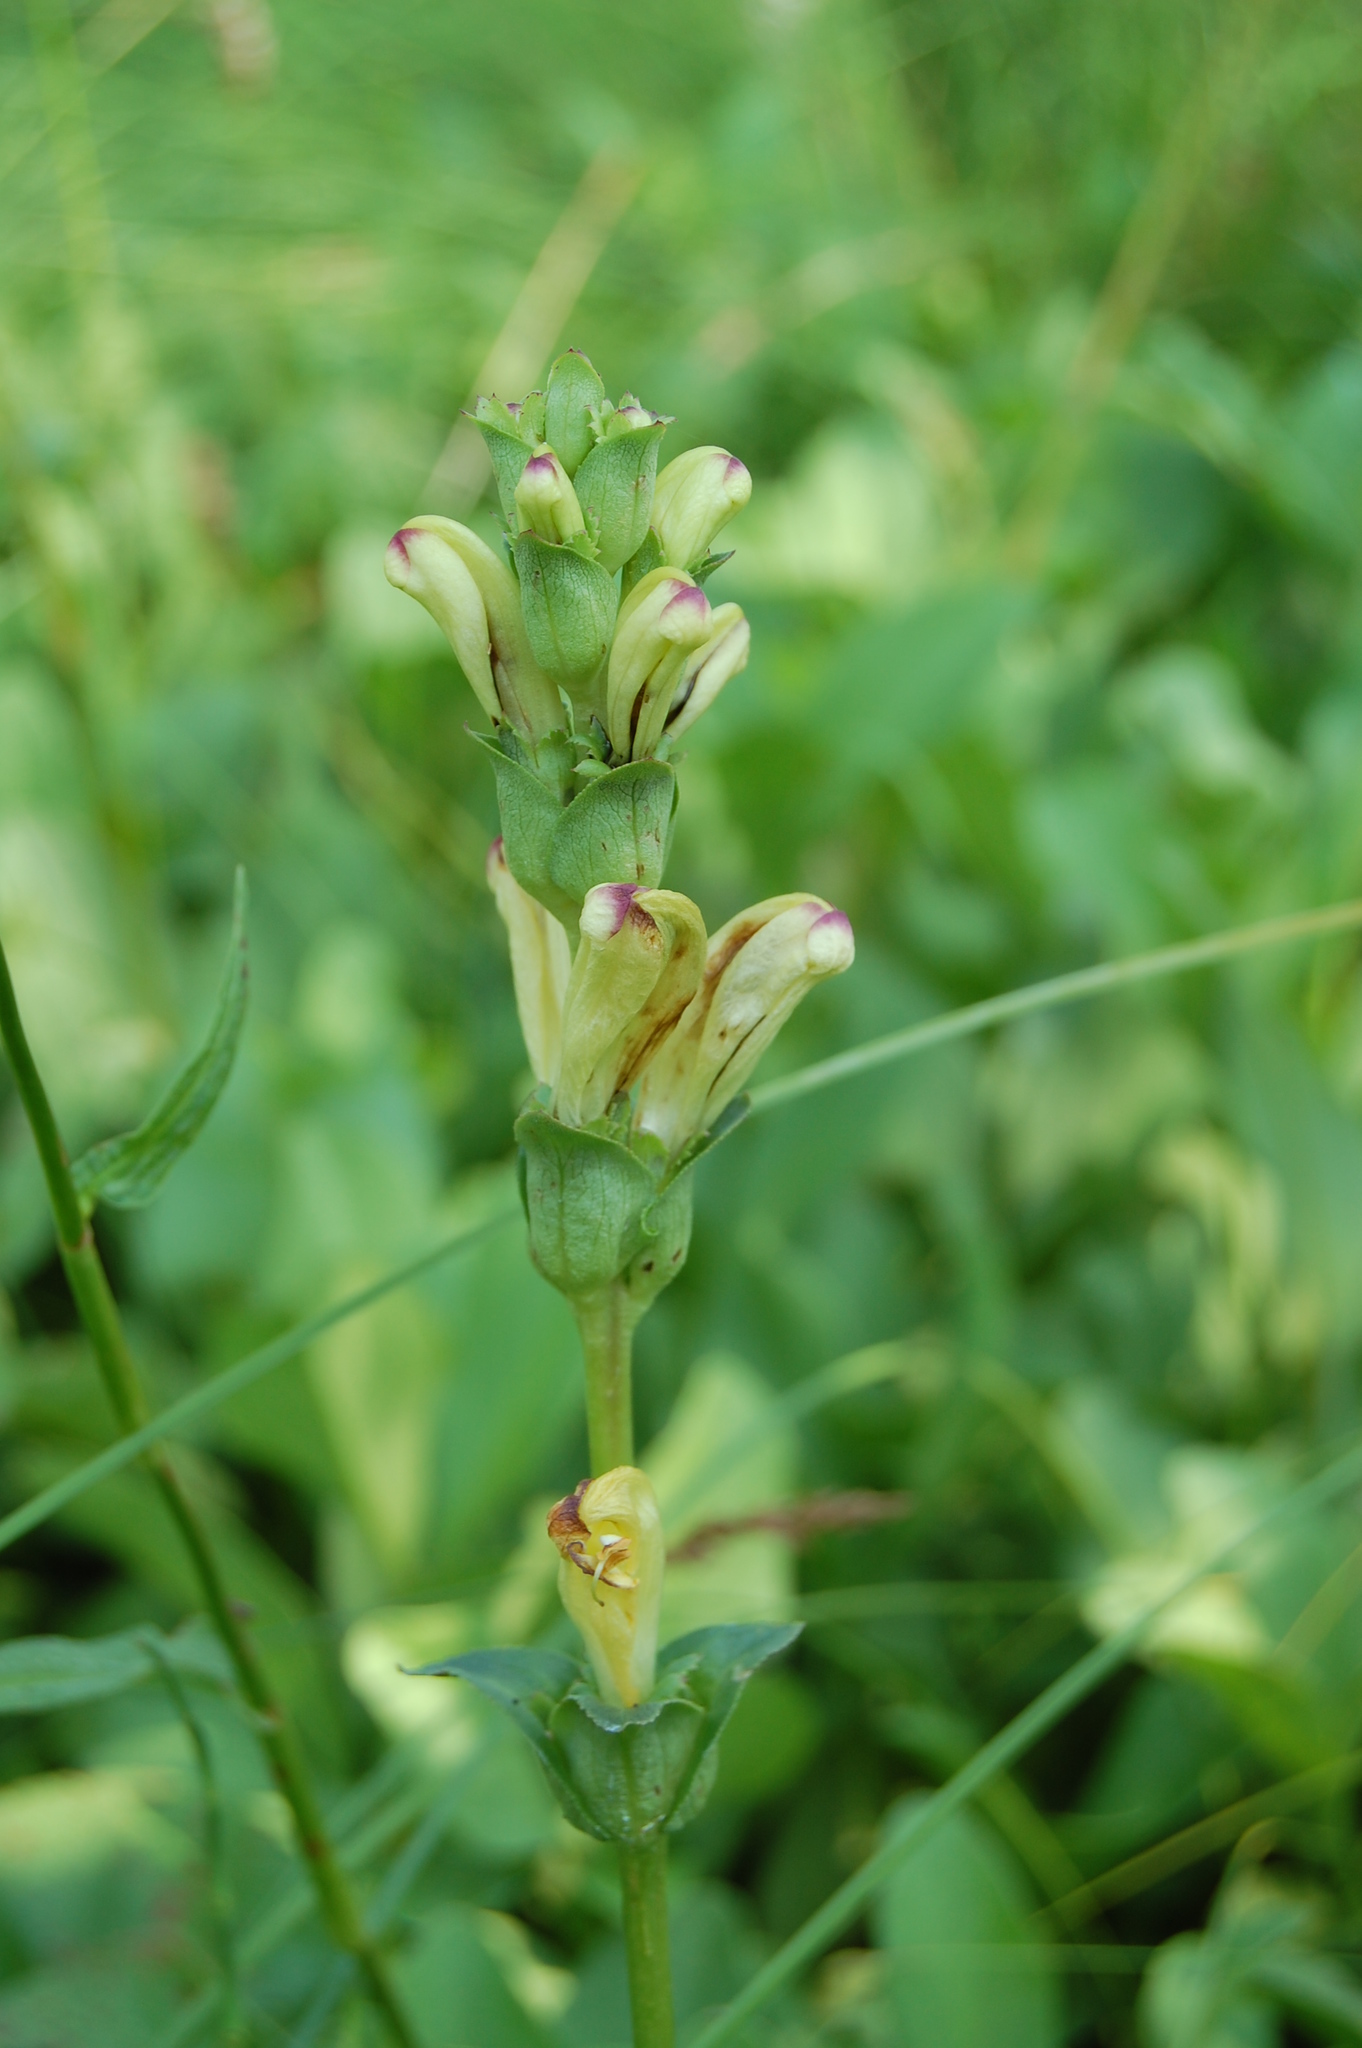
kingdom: Plantae
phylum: Tracheophyta
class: Magnoliopsida
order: Lamiales
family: Orobanchaceae
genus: Pedicularis
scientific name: Pedicularis sceptrum-carolinum
